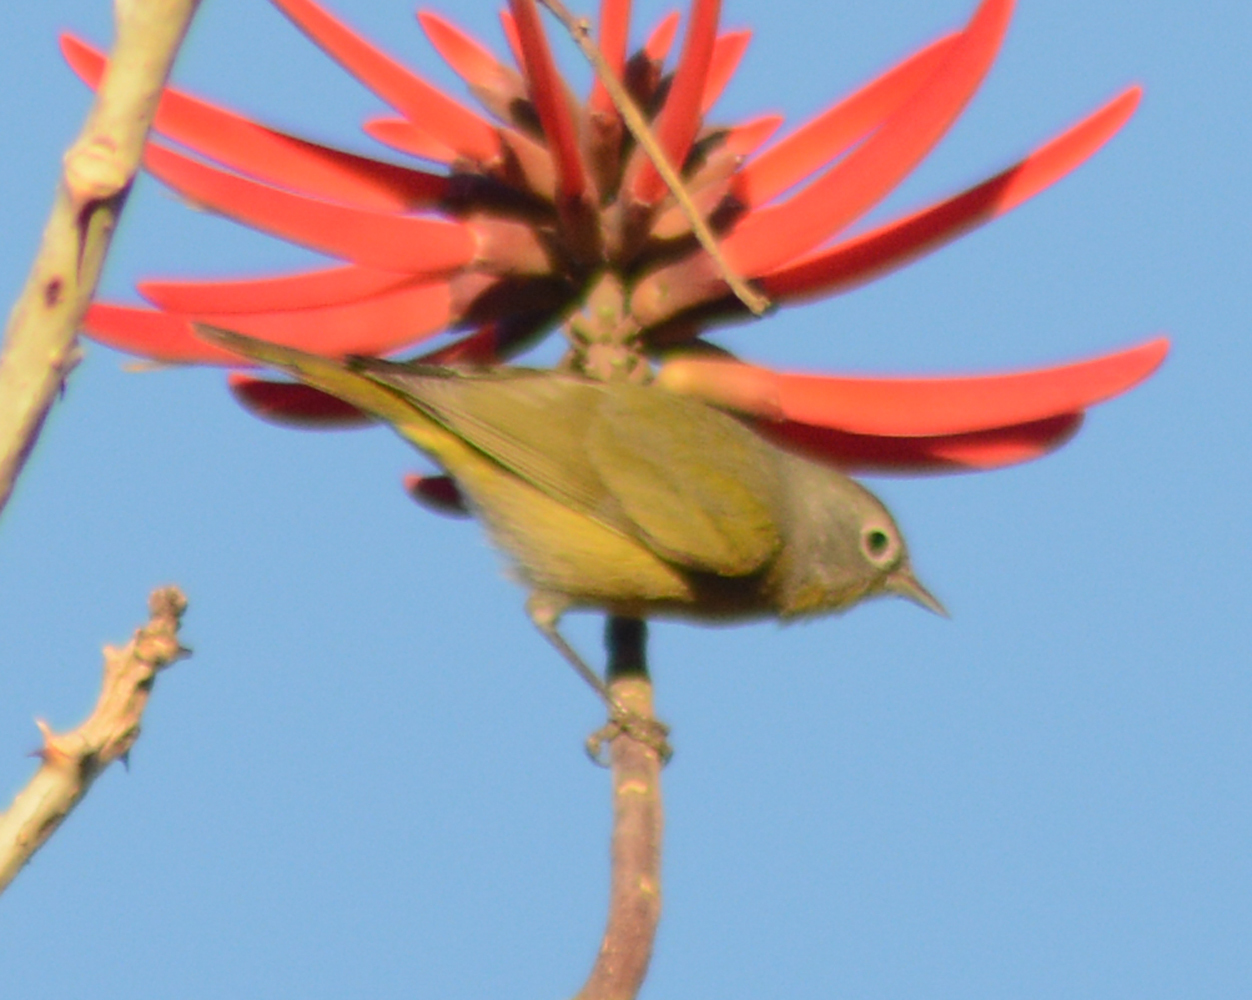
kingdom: Animalia
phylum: Chordata
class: Aves
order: Passeriformes
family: Parulidae
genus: Leiothlypis
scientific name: Leiothlypis ruficapilla
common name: Nashville warbler
